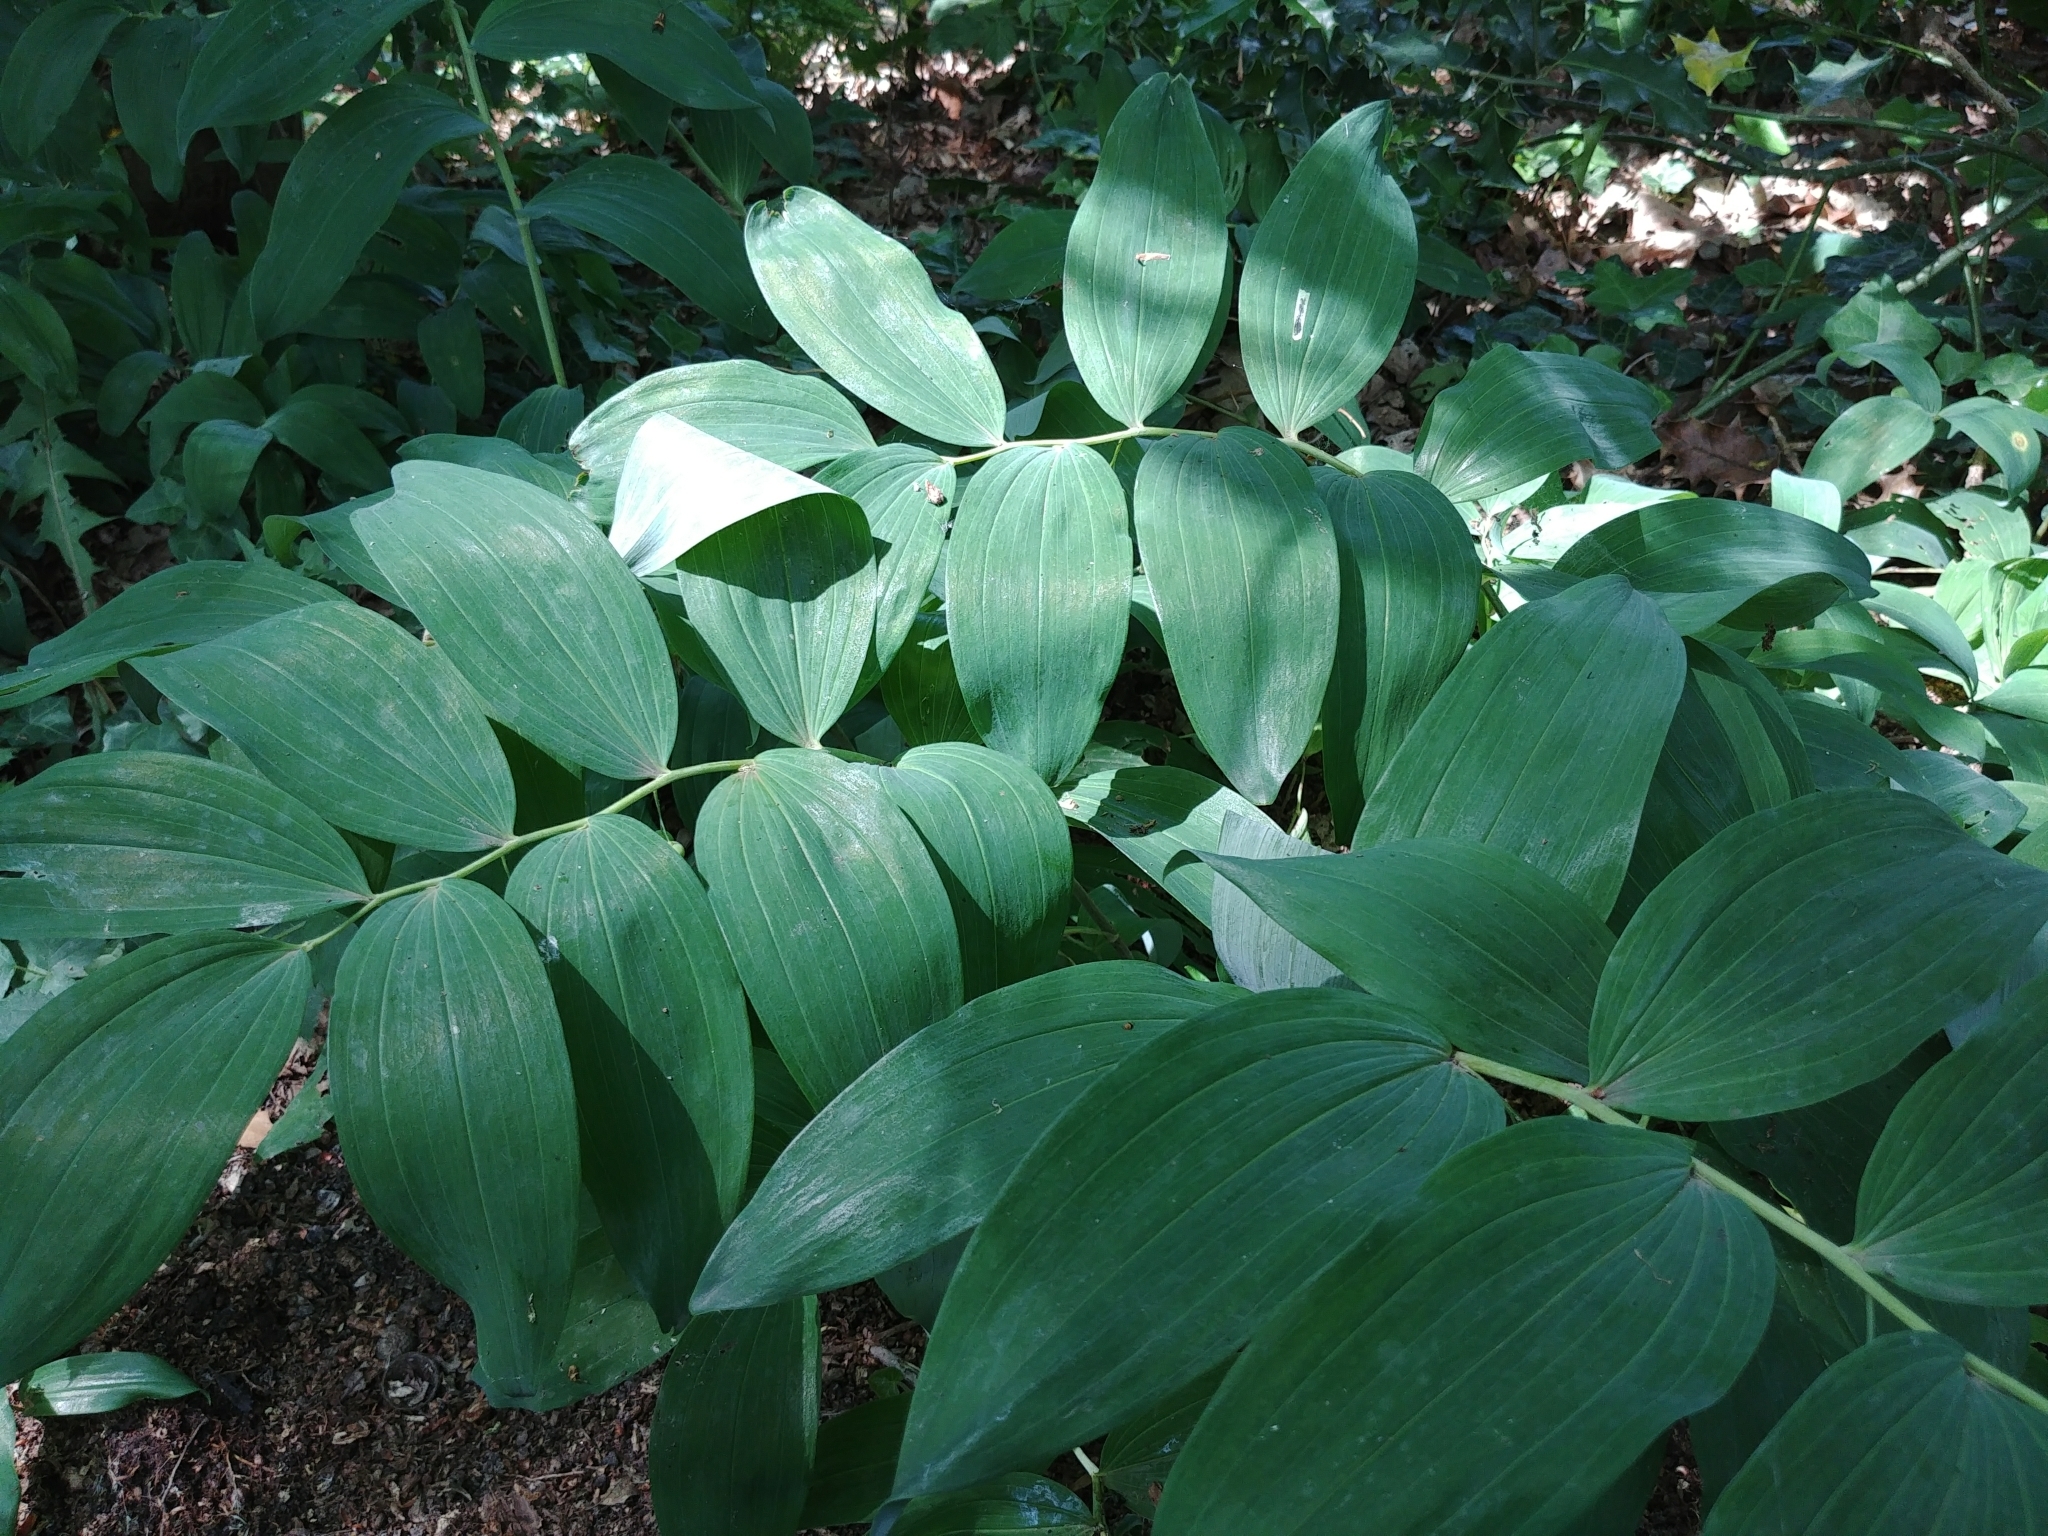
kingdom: Plantae
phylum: Tracheophyta
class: Liliopsida
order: Asparagales
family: Asparagaceae
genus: Polygonatum
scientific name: Polygonatum multiflorum
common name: Solomon's-seal
